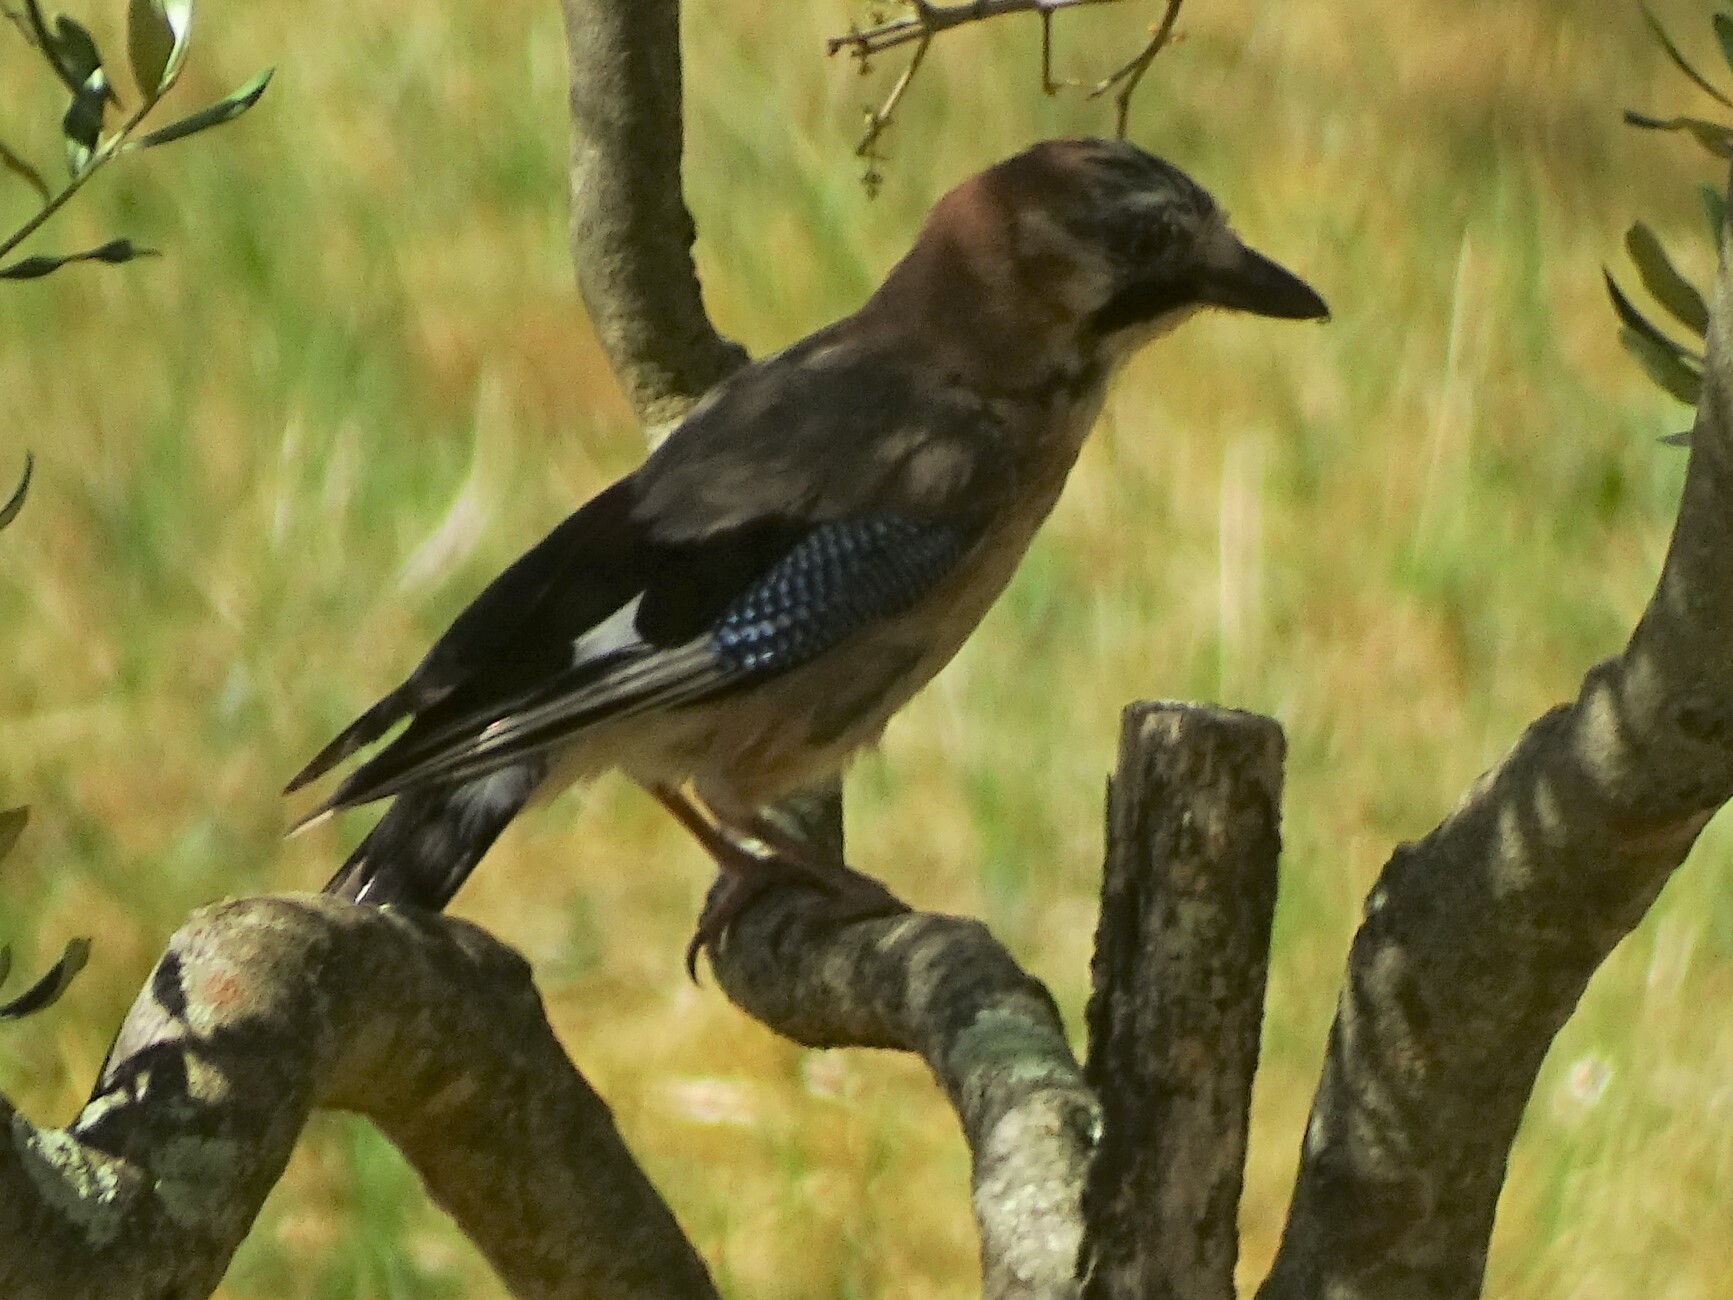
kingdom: Animalia
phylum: Chordata
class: Aves
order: Passeriformes
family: Corvidae
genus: Garrulus
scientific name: Garrulus glandarius
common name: Eurasian jay
